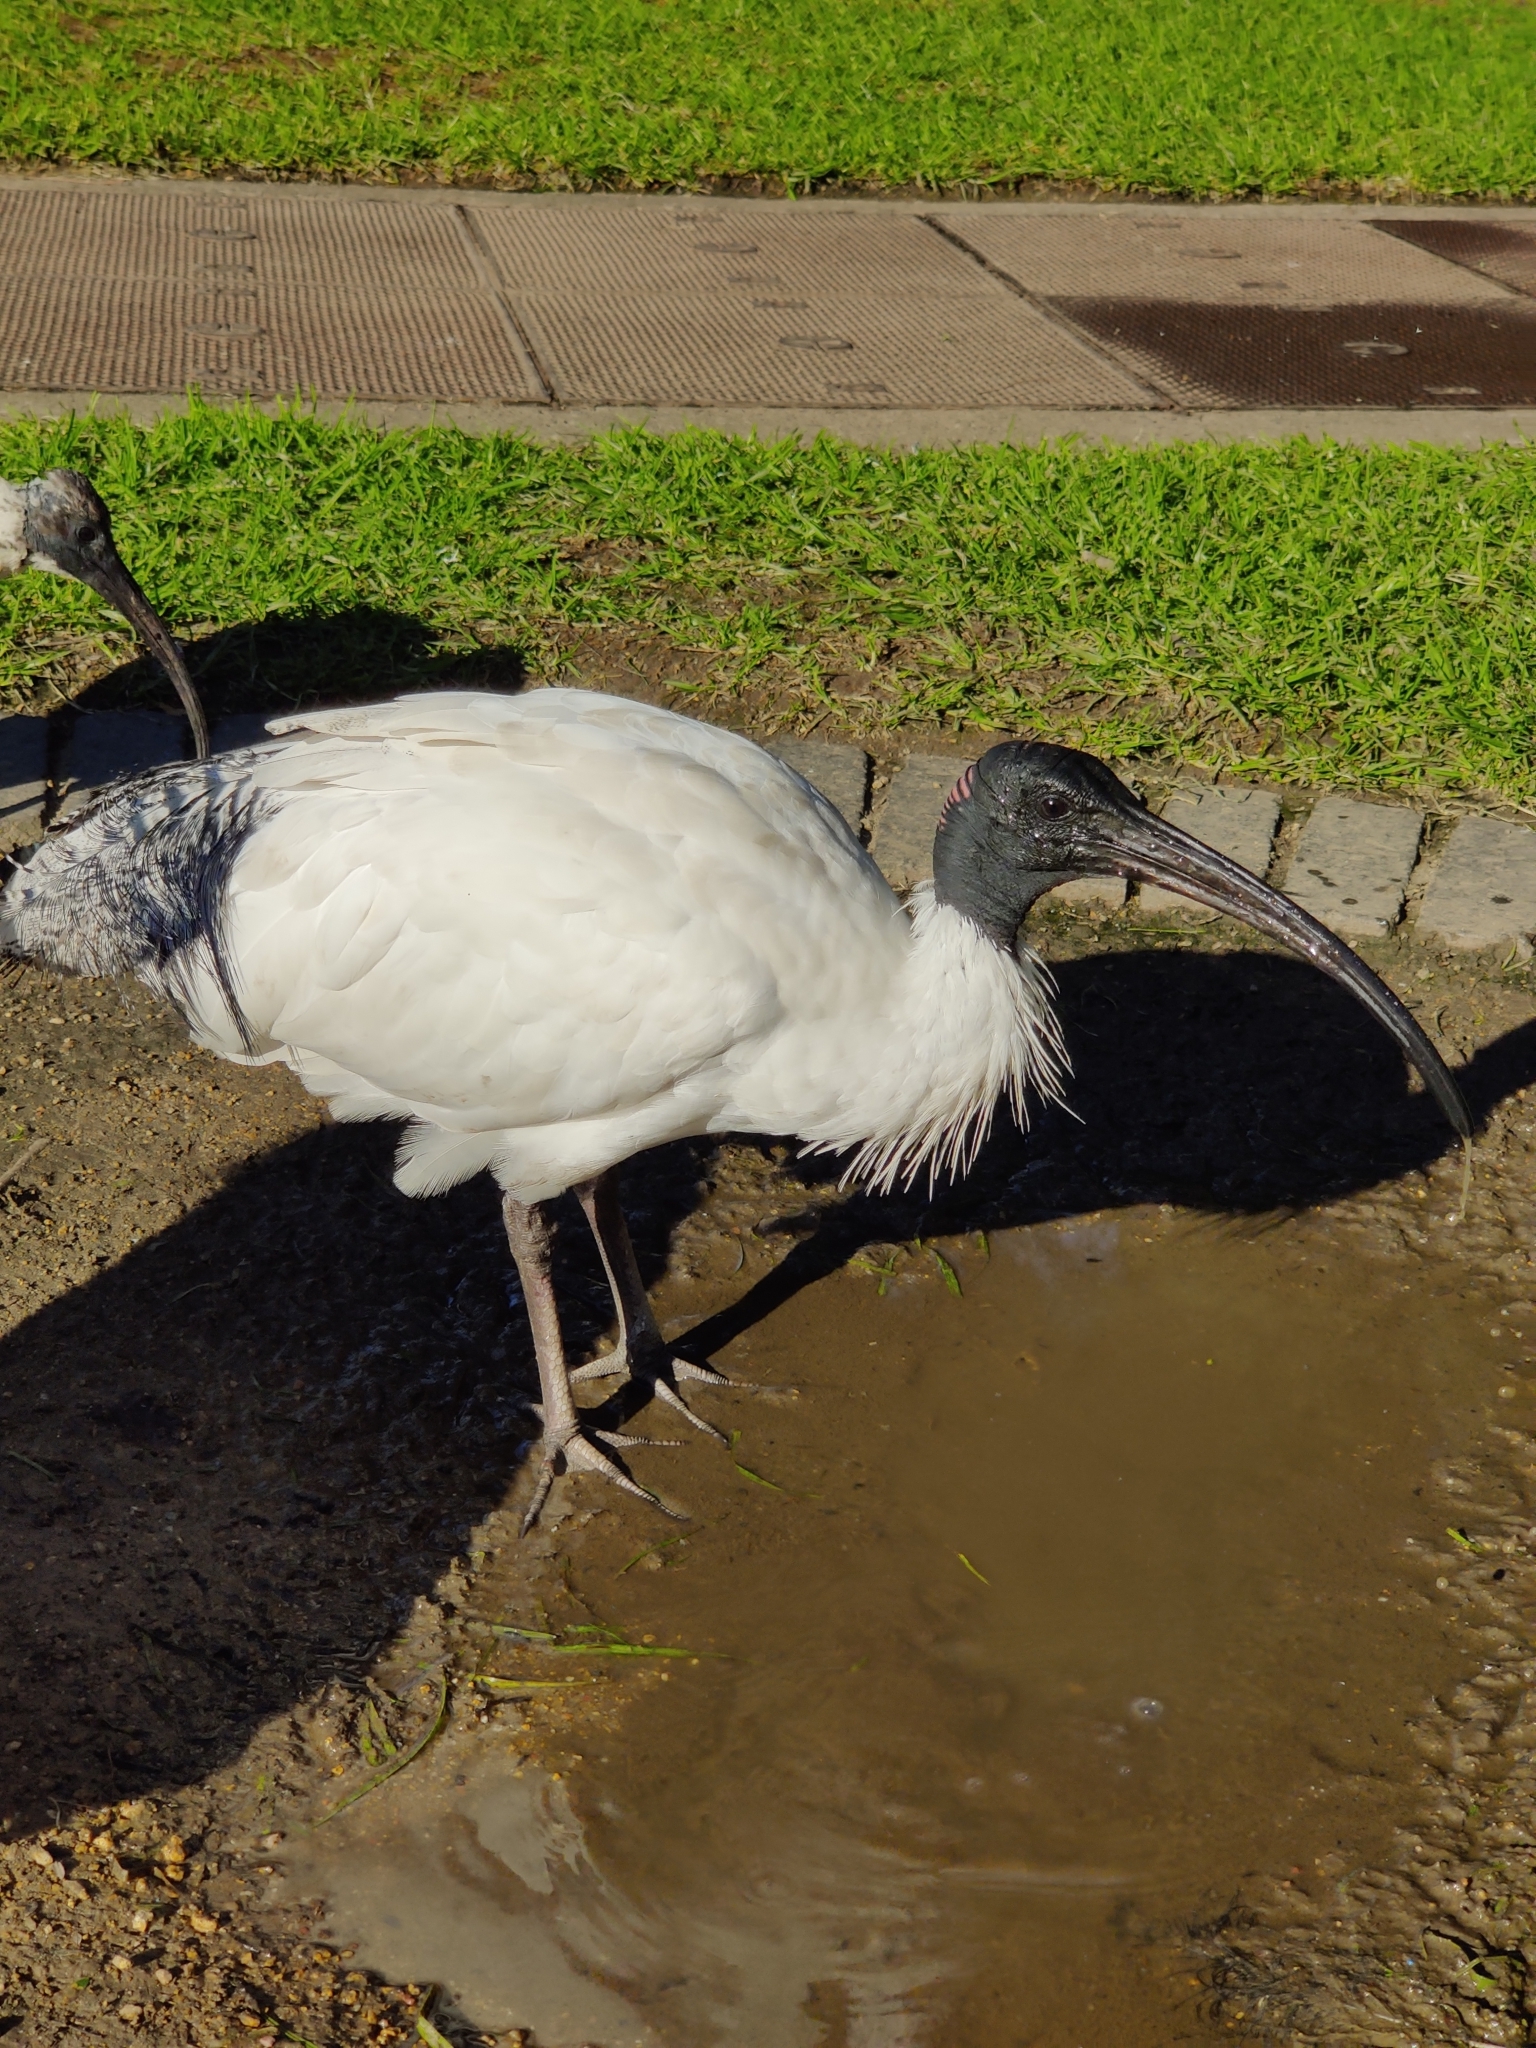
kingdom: Animalia
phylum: Chordata
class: Aves
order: Pelecaniformes
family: Threskiornithidae
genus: Threskiornis
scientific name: Threskiornis molucca
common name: Australian white ibis
